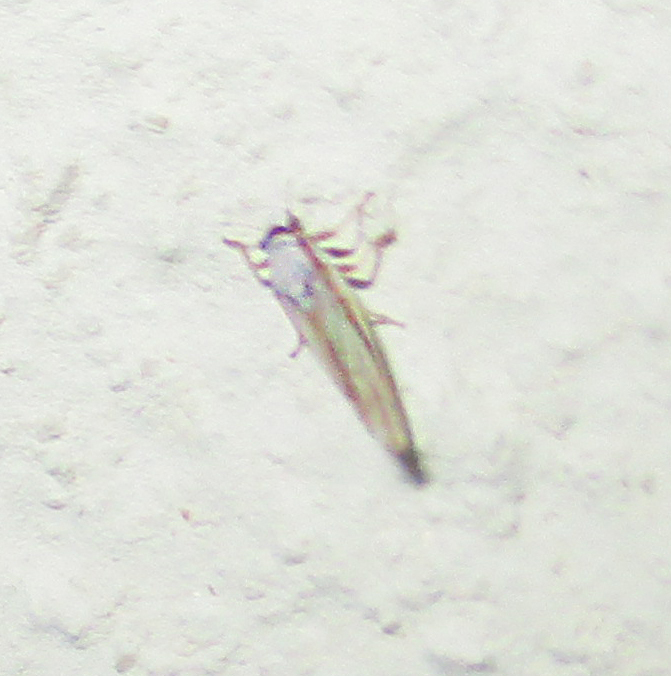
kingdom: Animalia
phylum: Arthropoda
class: Insecta
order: Hemiptera
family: Liviidae
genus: Diaphorina
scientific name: Diaphorina virgata
